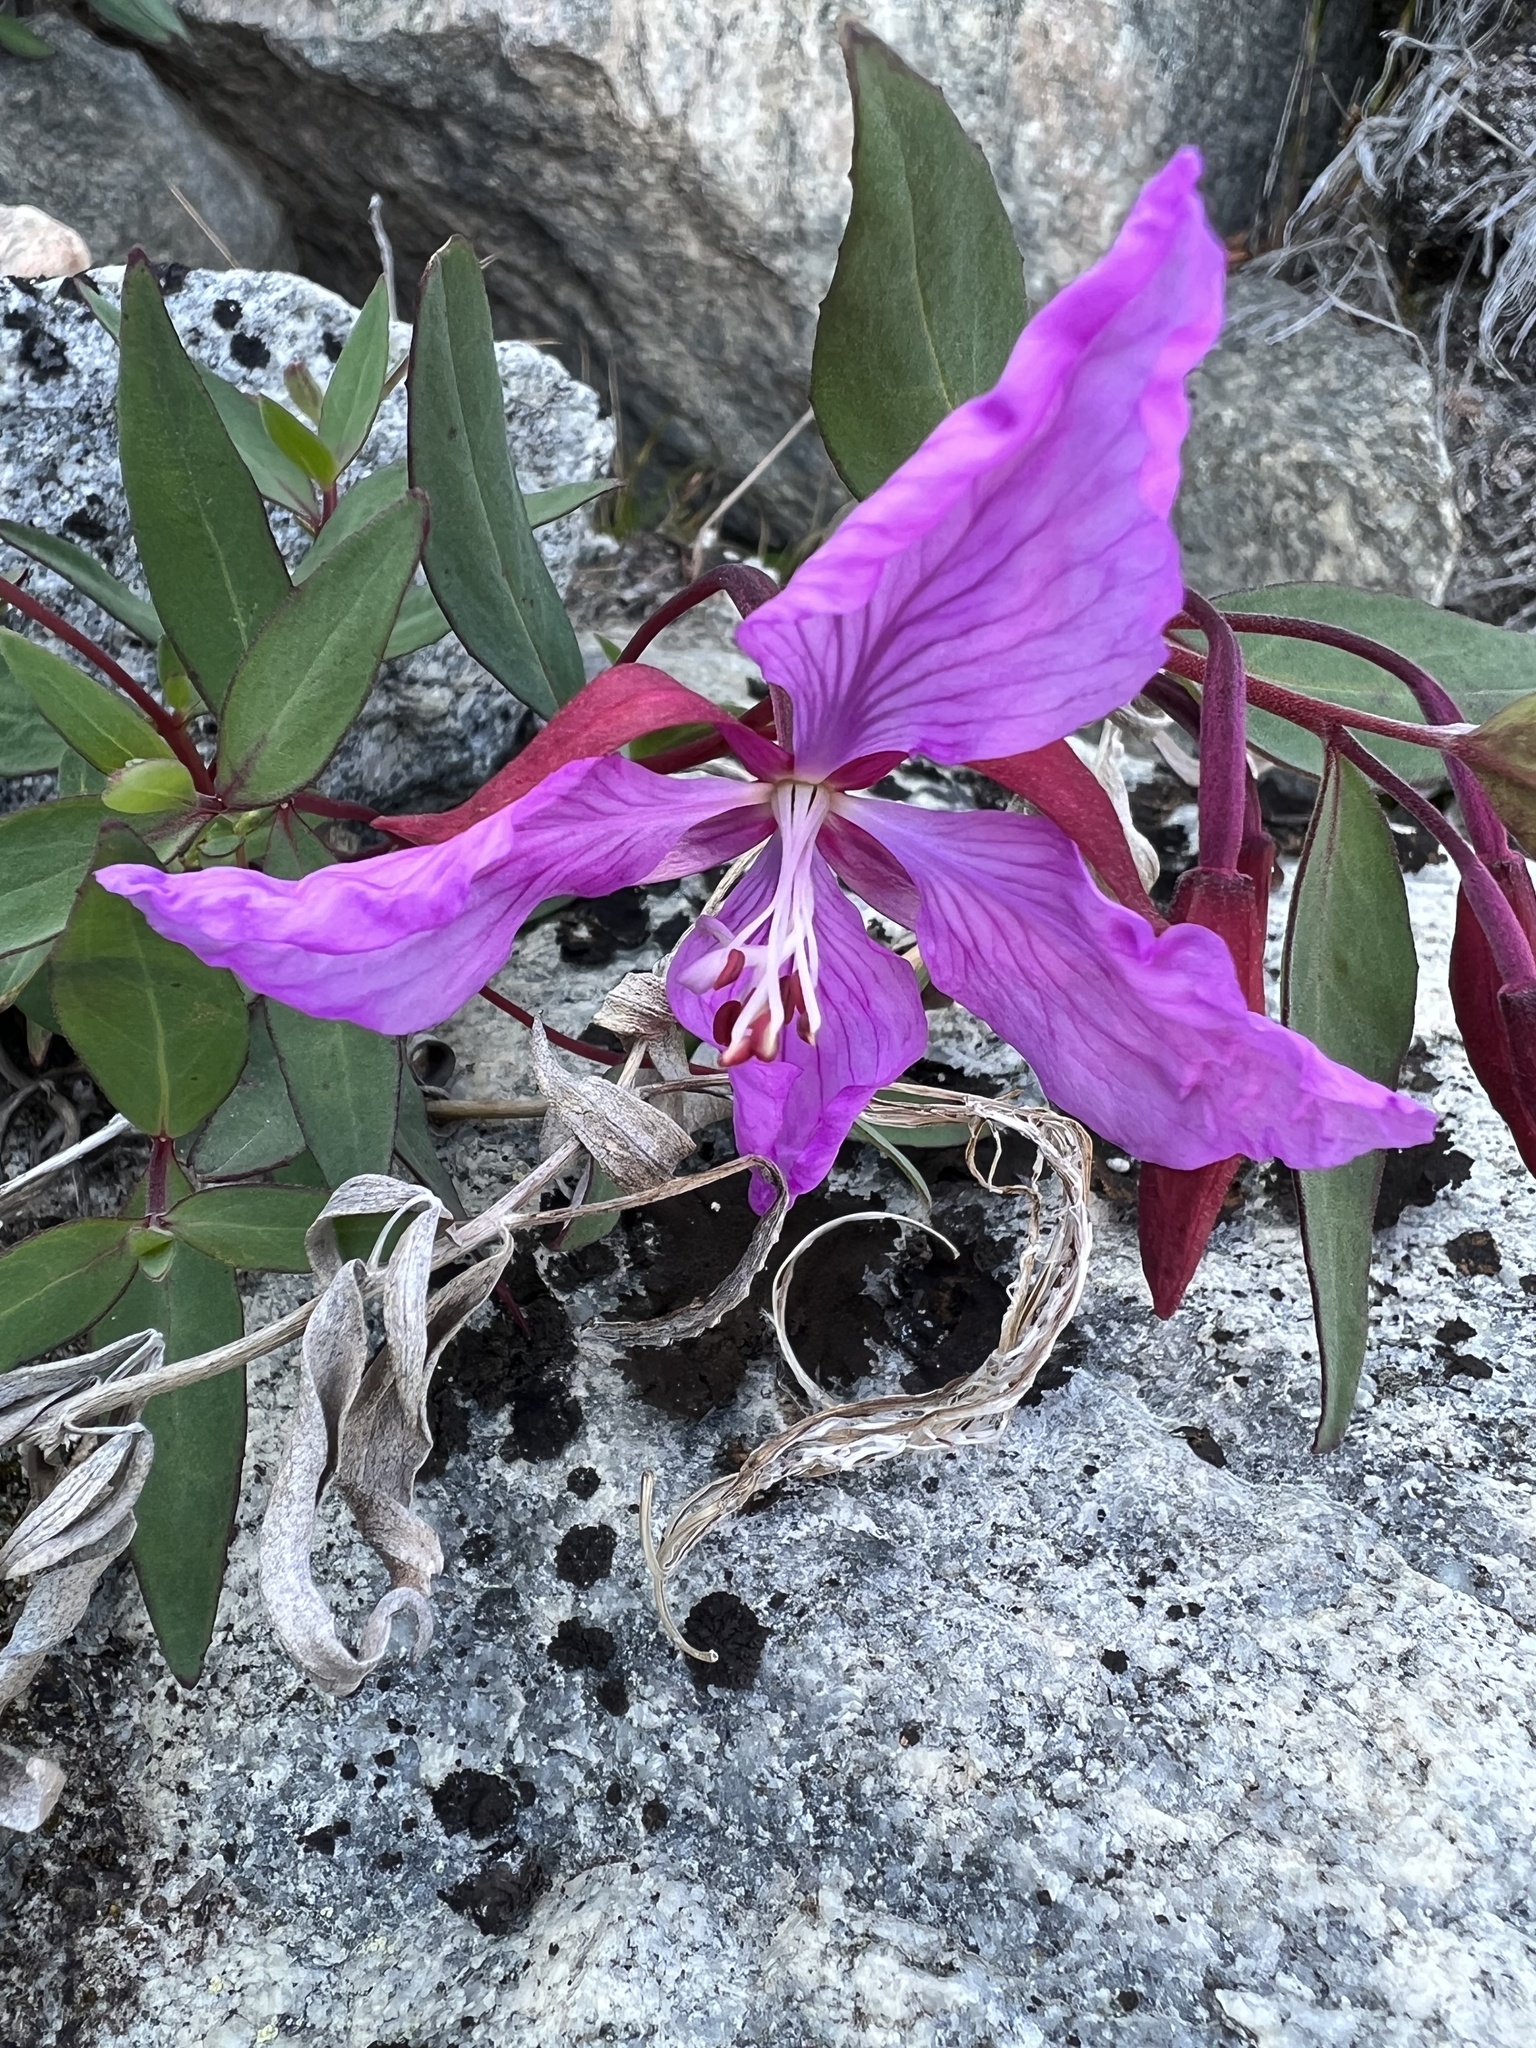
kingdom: Plantae
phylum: Tracheophyta
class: Magnoliopsida
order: Myrtales
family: Onagraceae
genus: Chamaenerion
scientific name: Chamaenerion latifolium
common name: Dwarf fireweed
